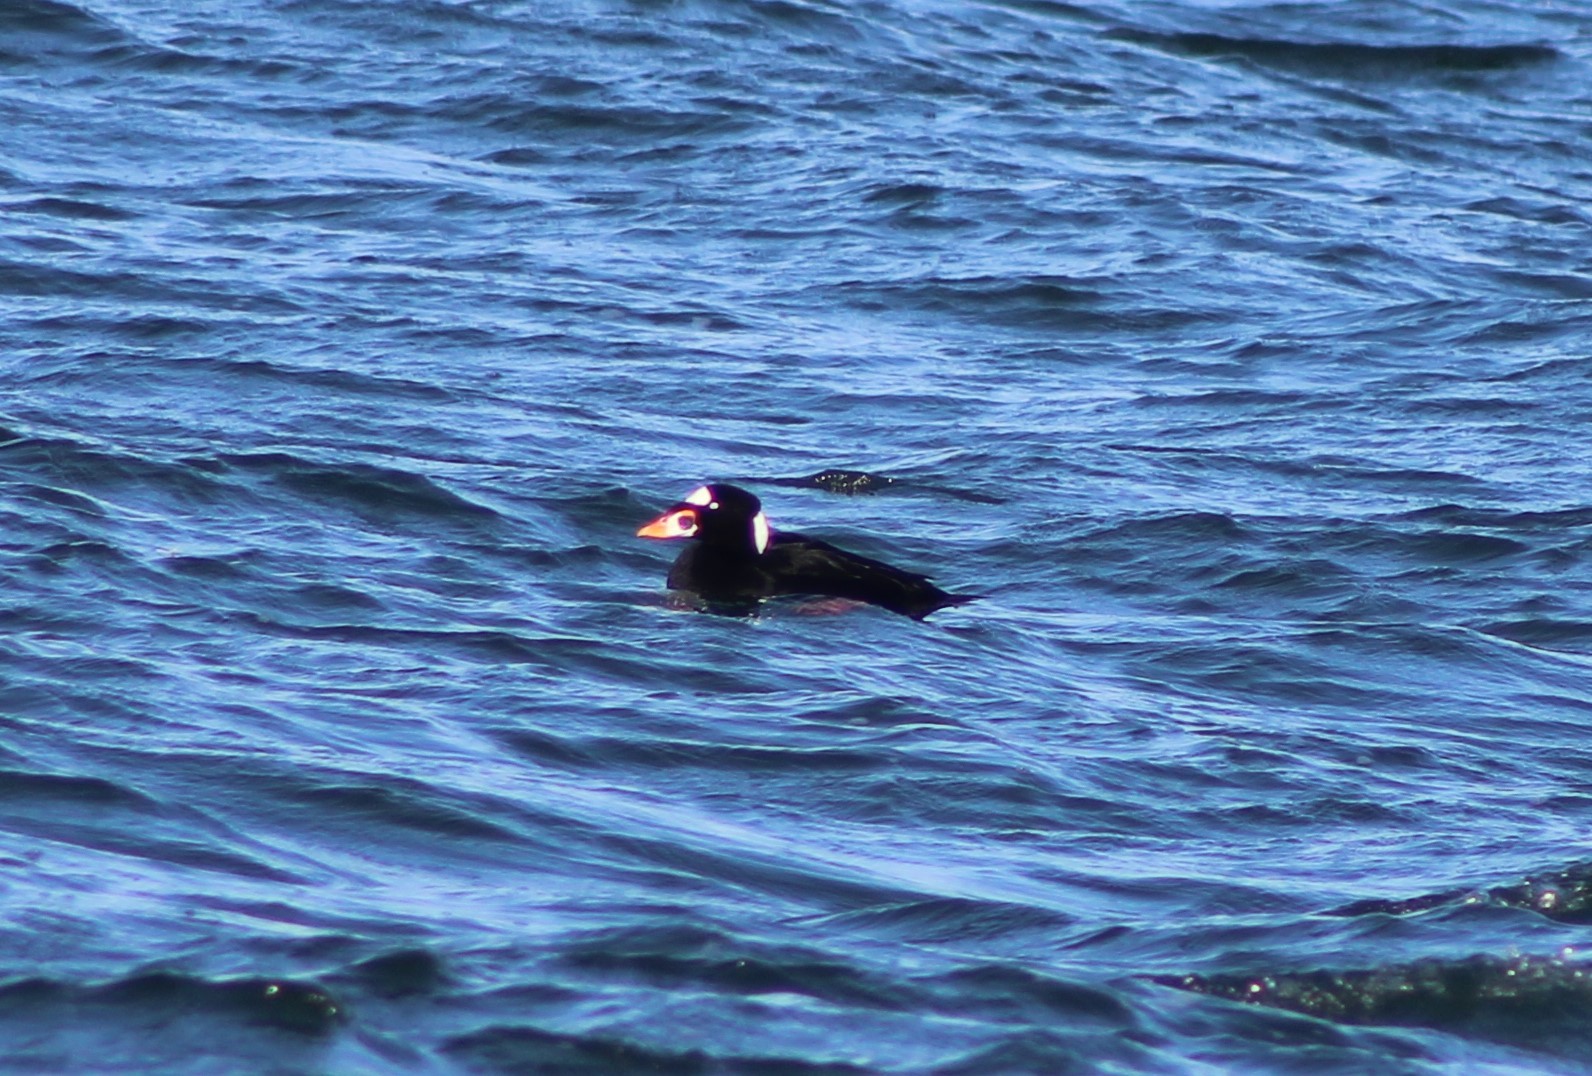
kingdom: Animalia
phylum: Chordata
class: Aves
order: Anseriformes
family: Anatidae
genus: Melanitta
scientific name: Melanitta perspicillata
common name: Surf scoter
